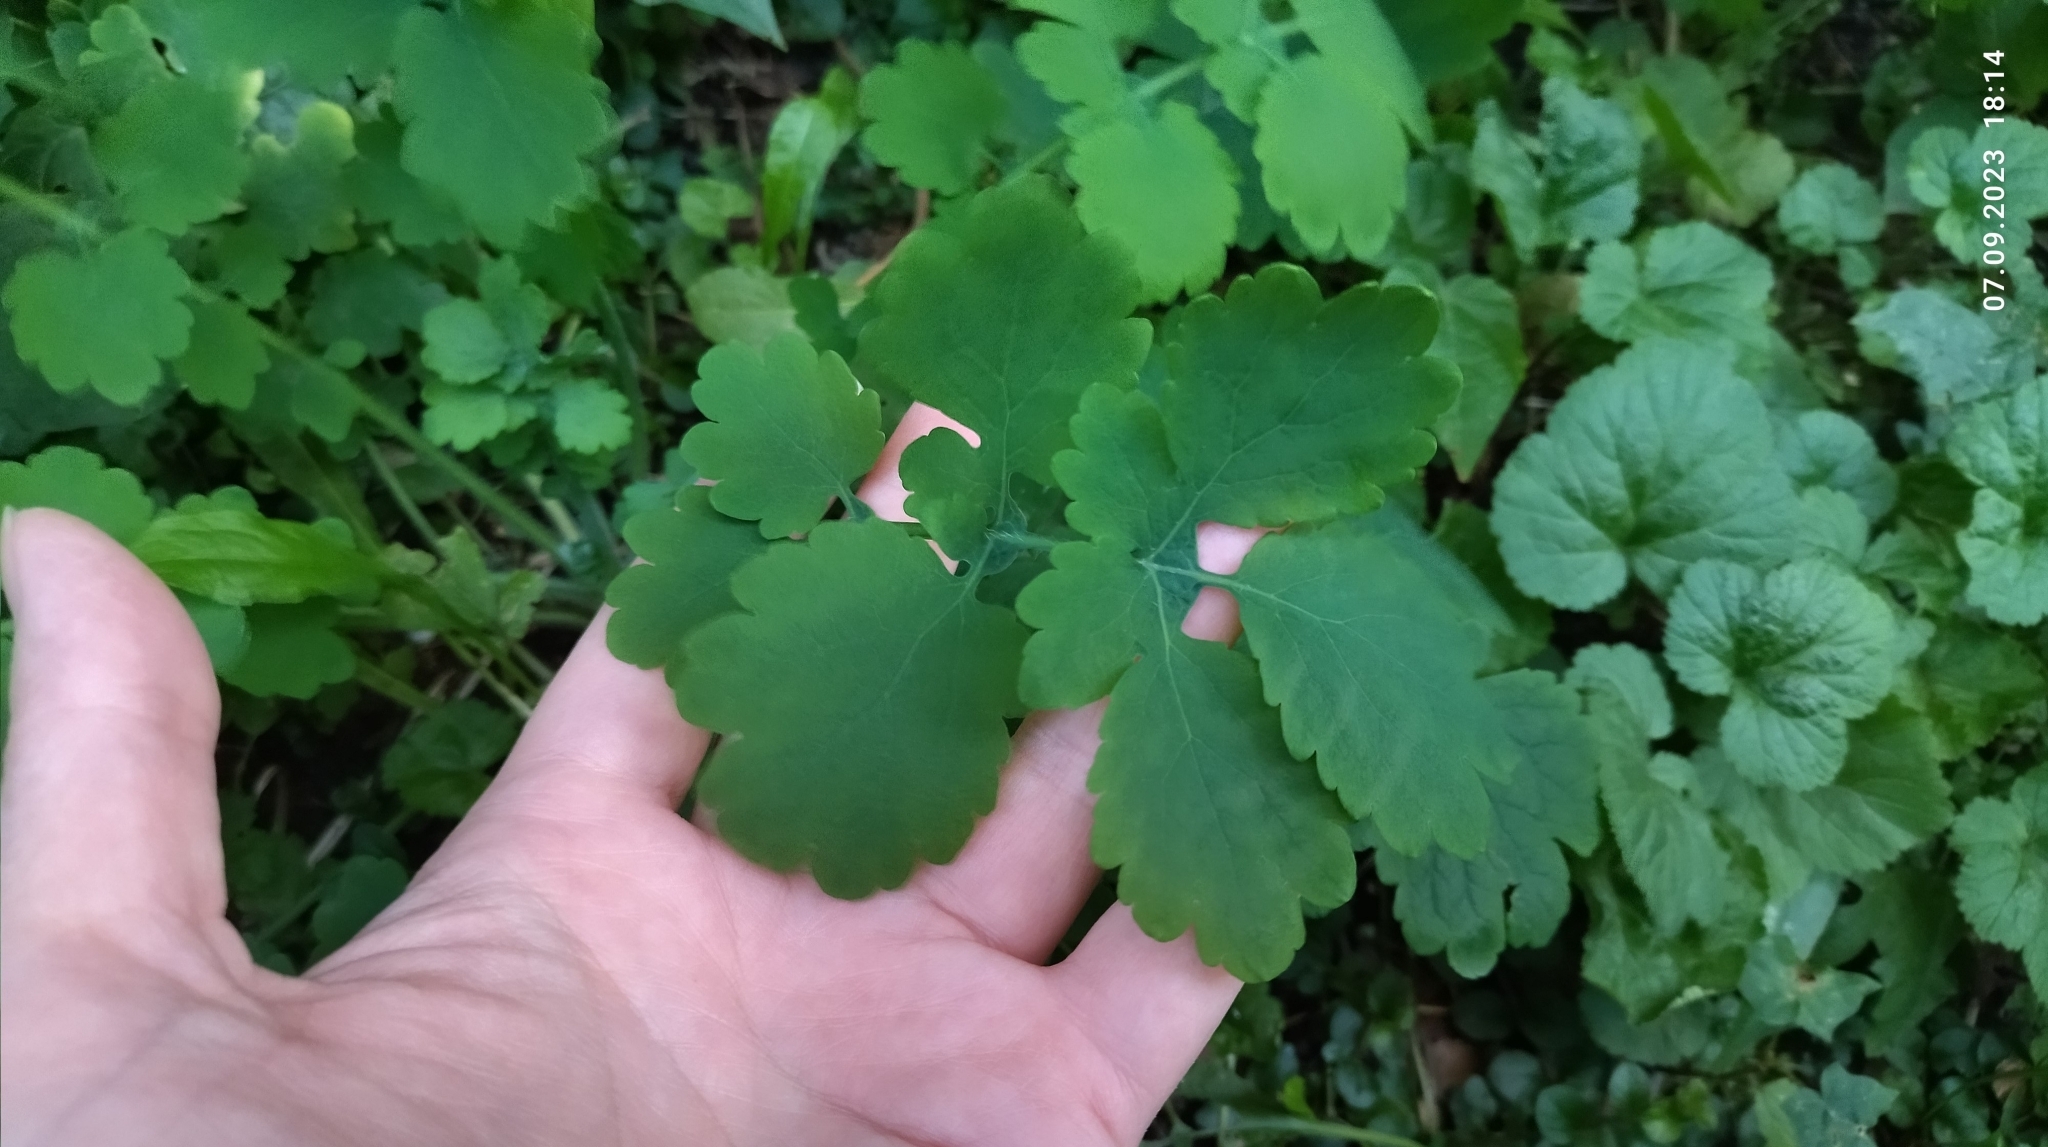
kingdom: Plantae
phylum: Tracheophyta
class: Magnoliopsida
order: Ranunculales
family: Papaveraceae
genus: Chelidonium
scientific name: Chelidonium majus
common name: Greater celandine
